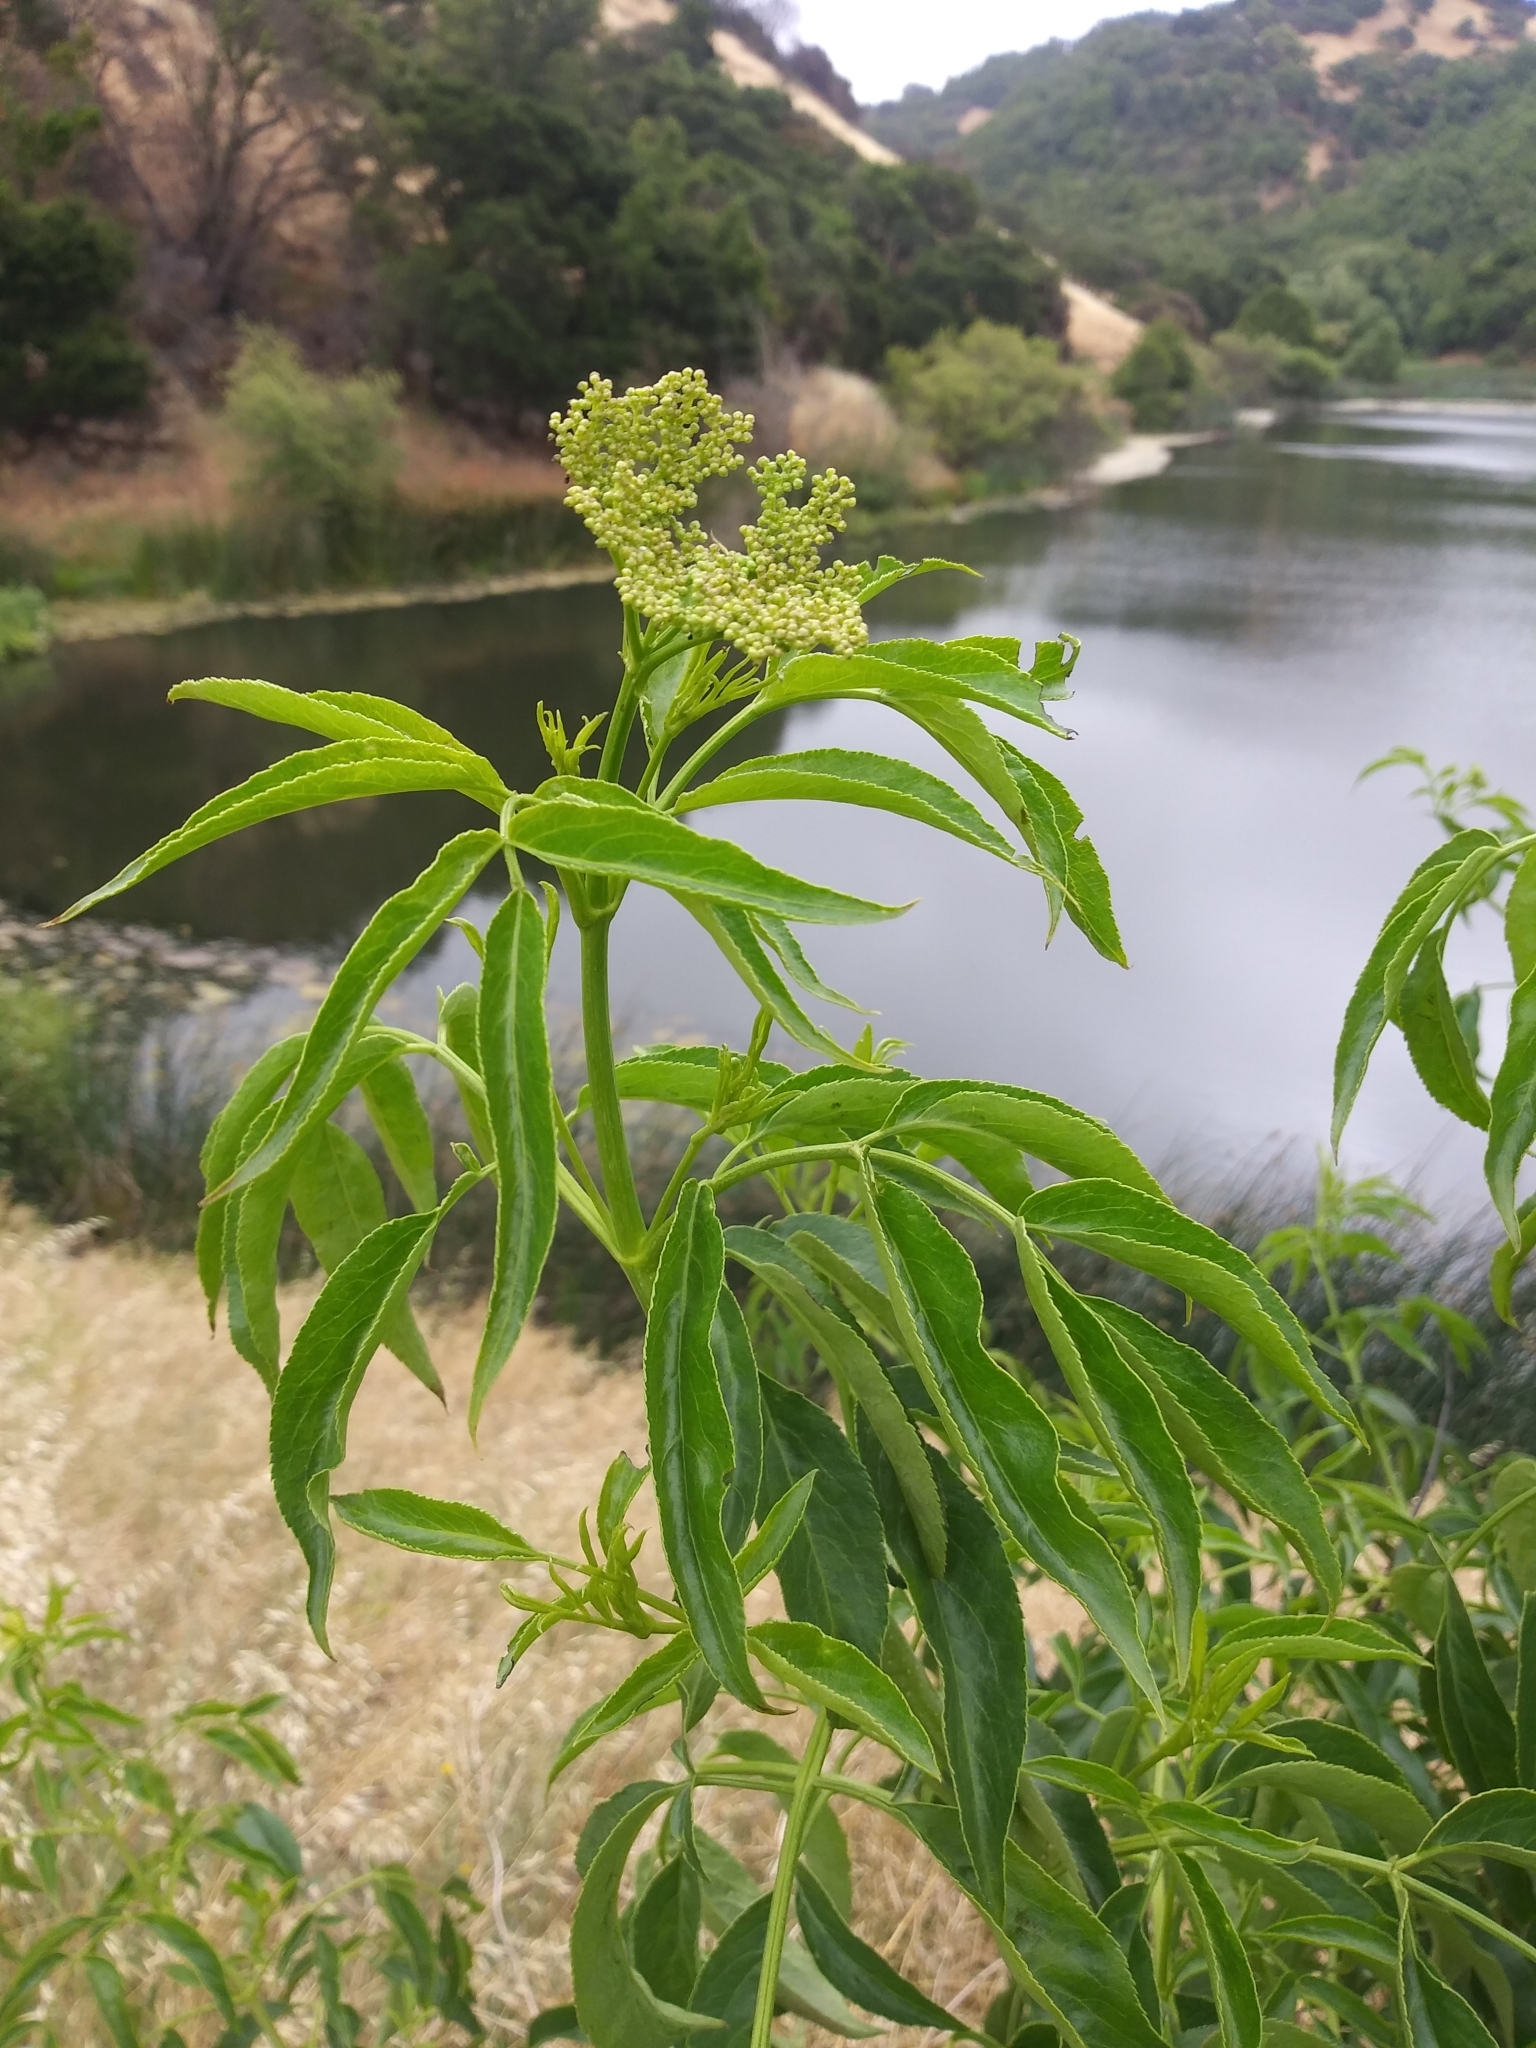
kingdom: Plantae
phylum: Tracheophyta
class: Magnoliopsida
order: Dipsacales
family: Viburnaceae
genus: Sambucus
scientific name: Sambucus cerulea
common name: Blue elder
